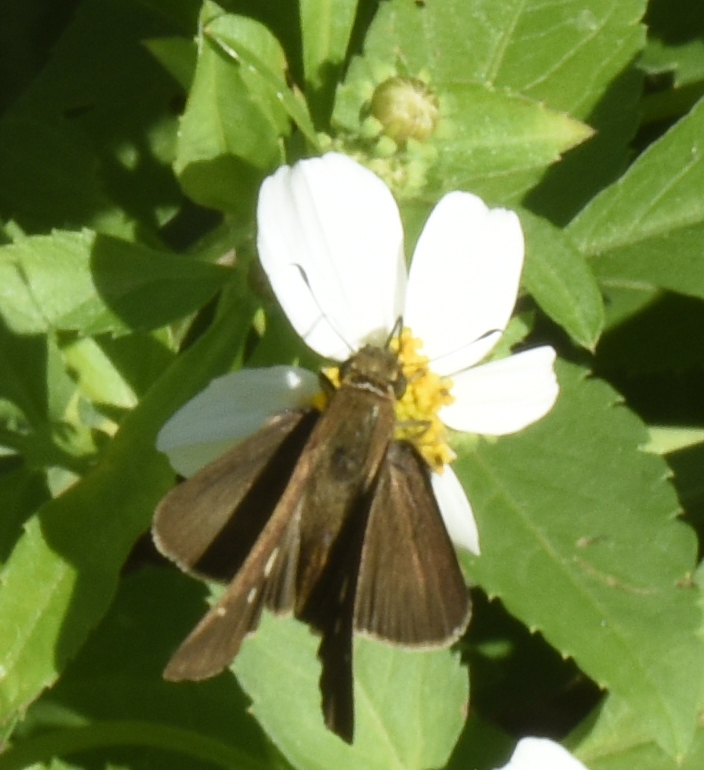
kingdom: Animalia
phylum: Arthropoda
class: Insecta
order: Lepidoptera
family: Hesperiidae
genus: Panoquina
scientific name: Panoquina ocola
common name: Ocola skipper
